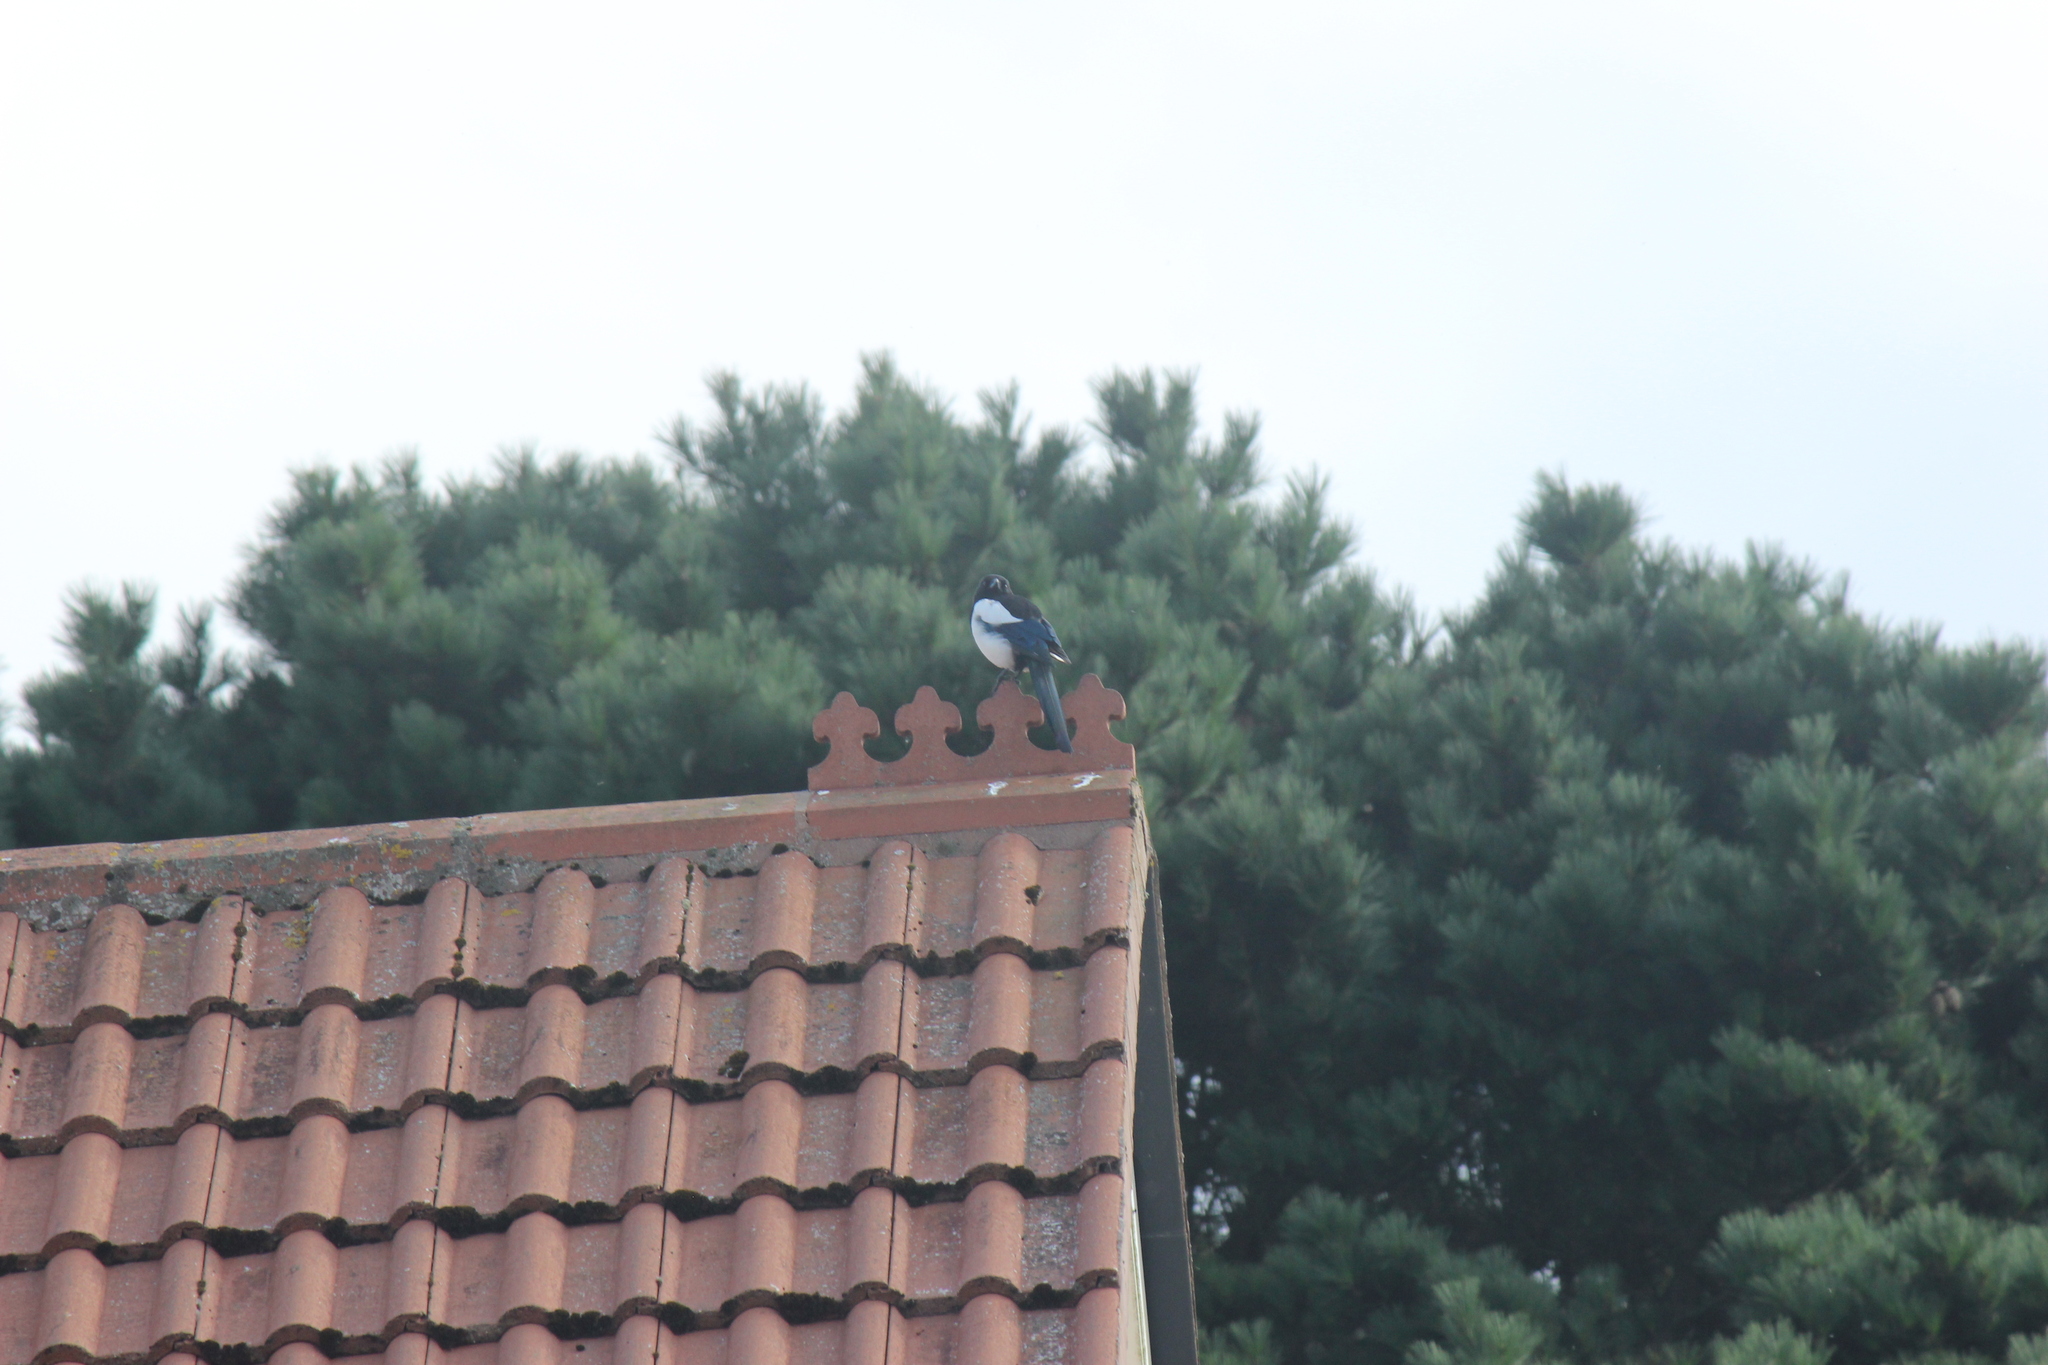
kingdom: Animalia
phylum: Chordata
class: Aves
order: Passeriformes
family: Corvidae
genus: Pica
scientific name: Pica pica
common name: Eurasian magpie
